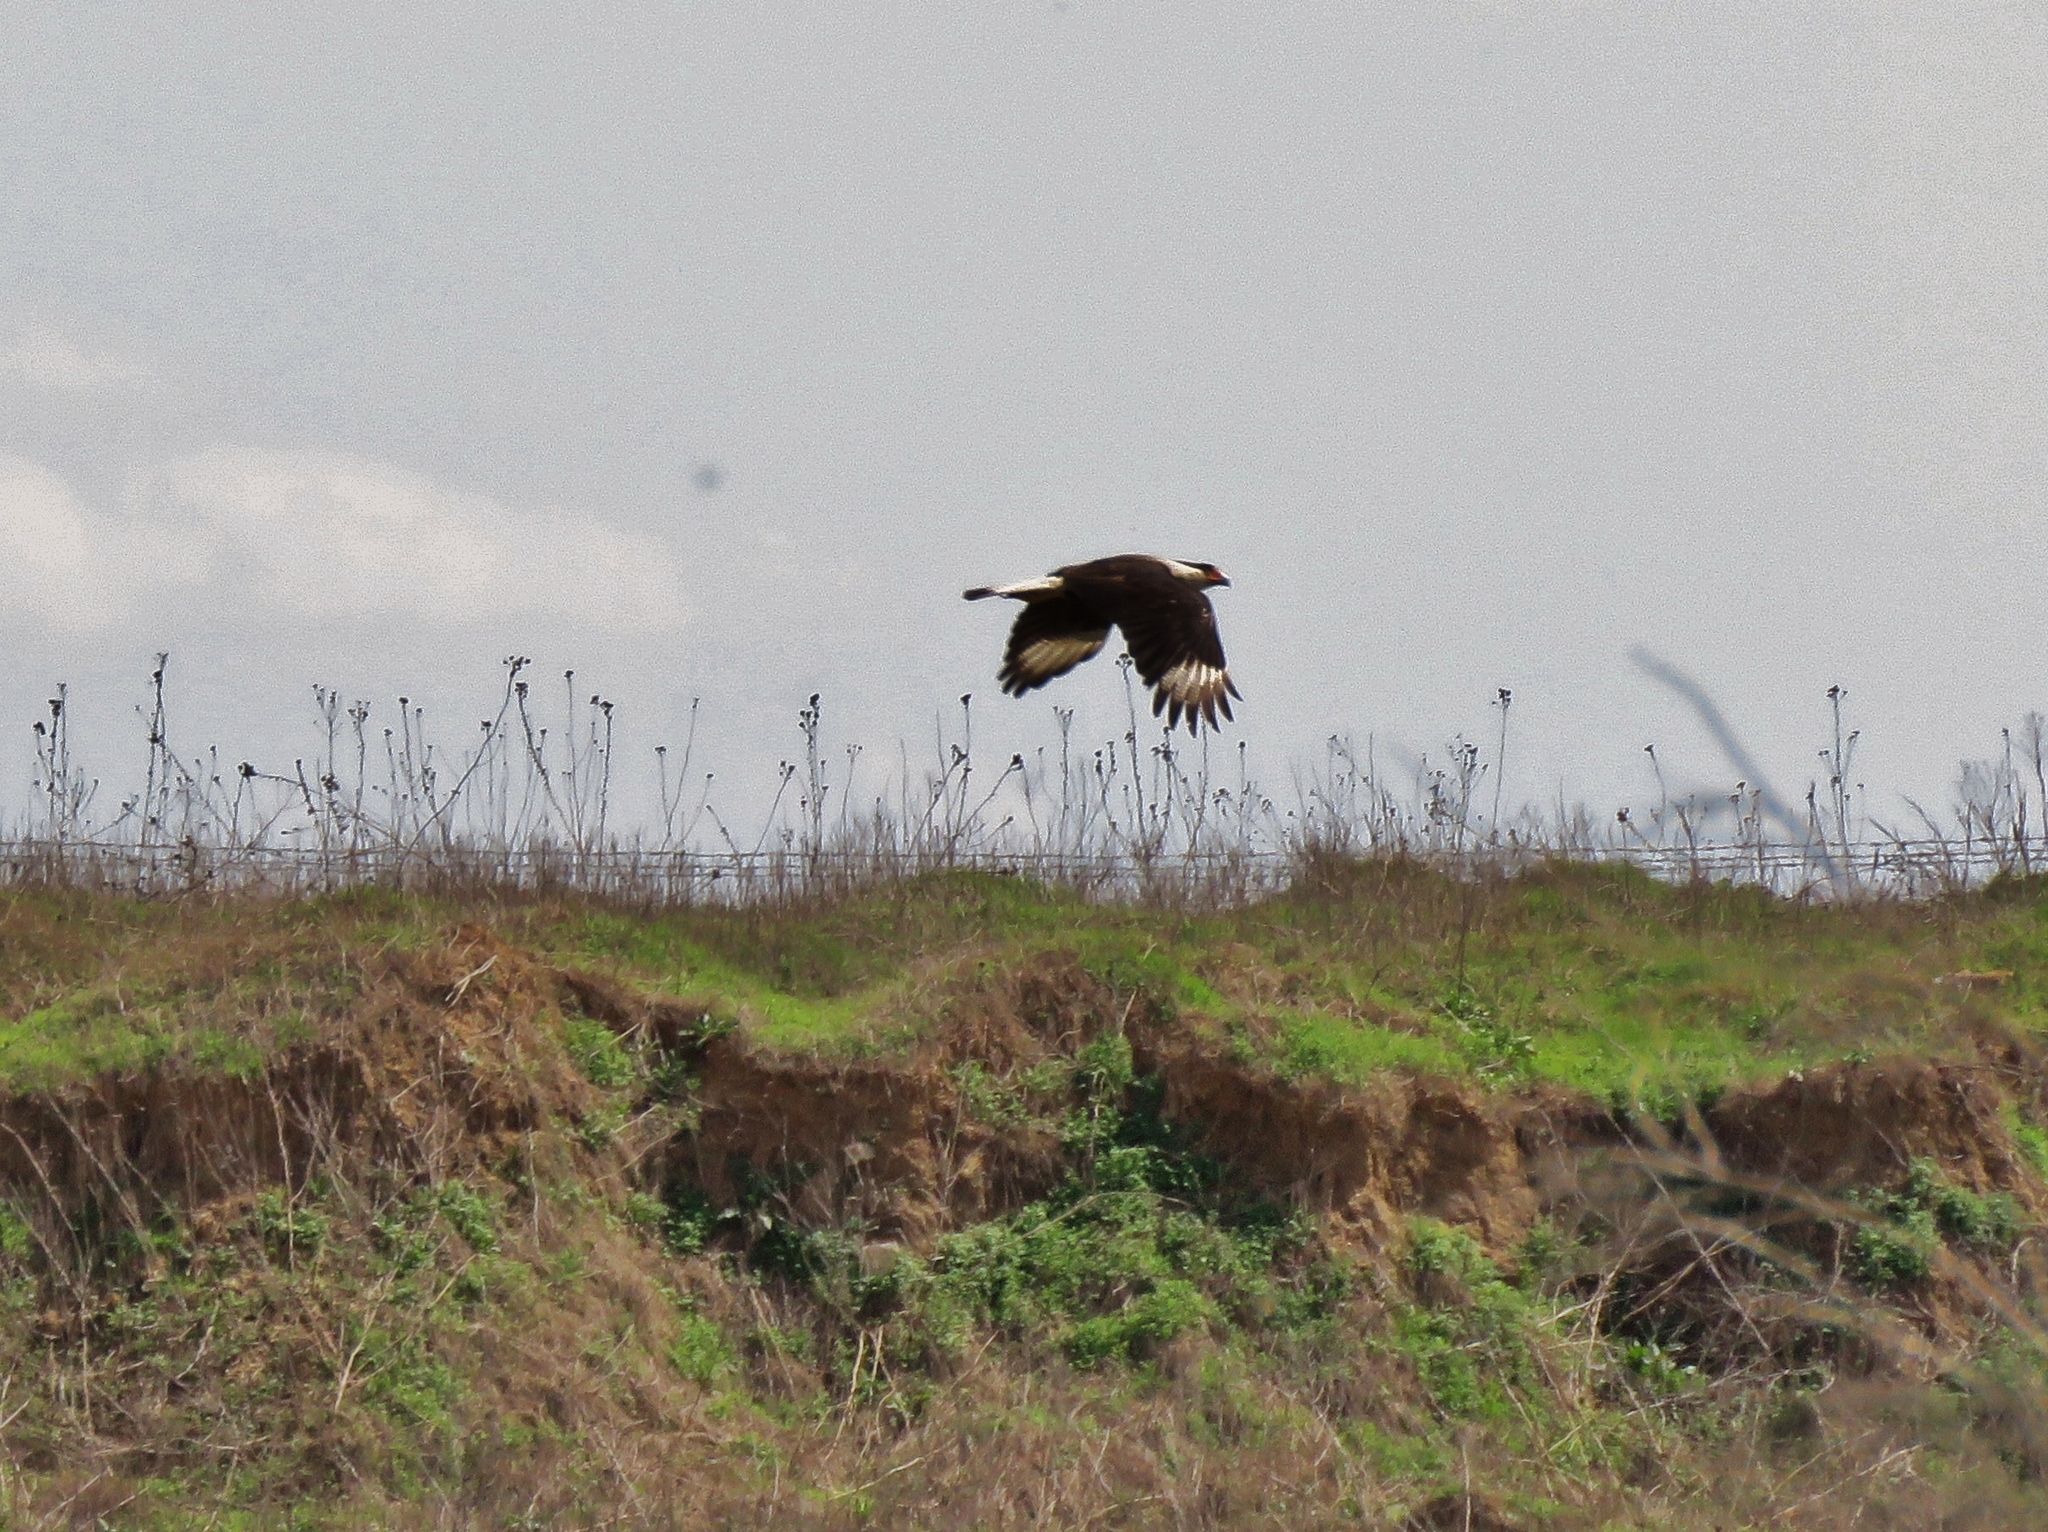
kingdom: Animalia
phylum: Chordata
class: Aves
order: Falconiformes
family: Falconidae
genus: Caracara
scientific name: Caracara plancus
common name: Southern caracara
